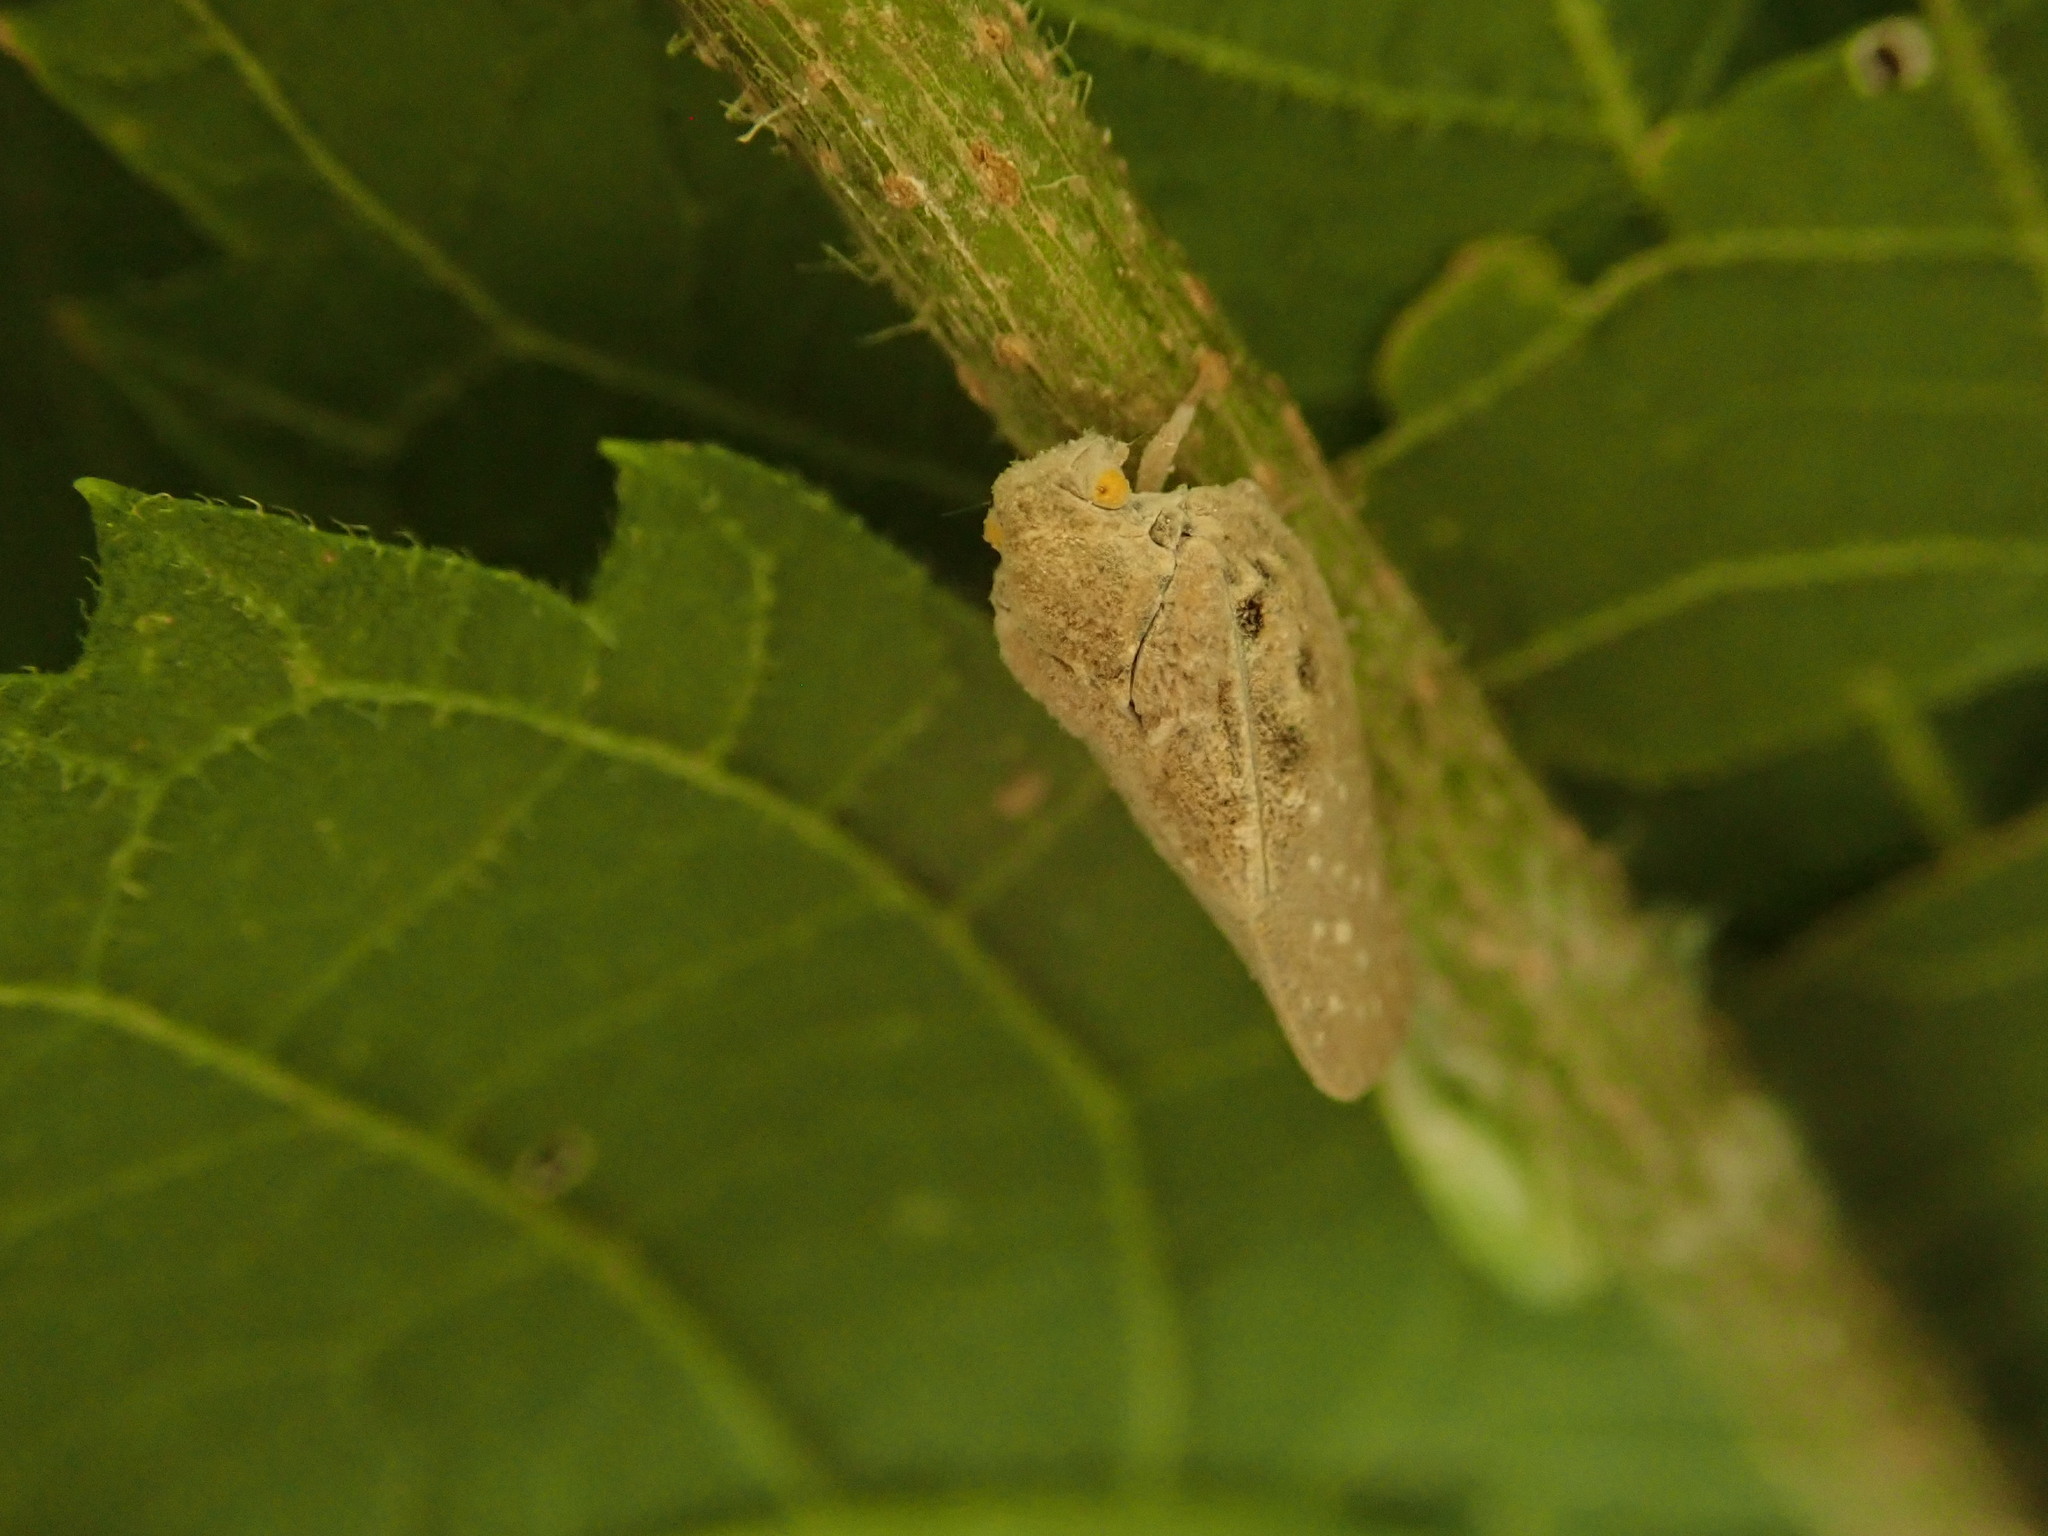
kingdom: Animalia
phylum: Arthropoda
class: Insecta
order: Hemiptera
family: Flatidae
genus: Metcalfa
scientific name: Metcalfa pruinosa
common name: Citrus flatid planthopper
